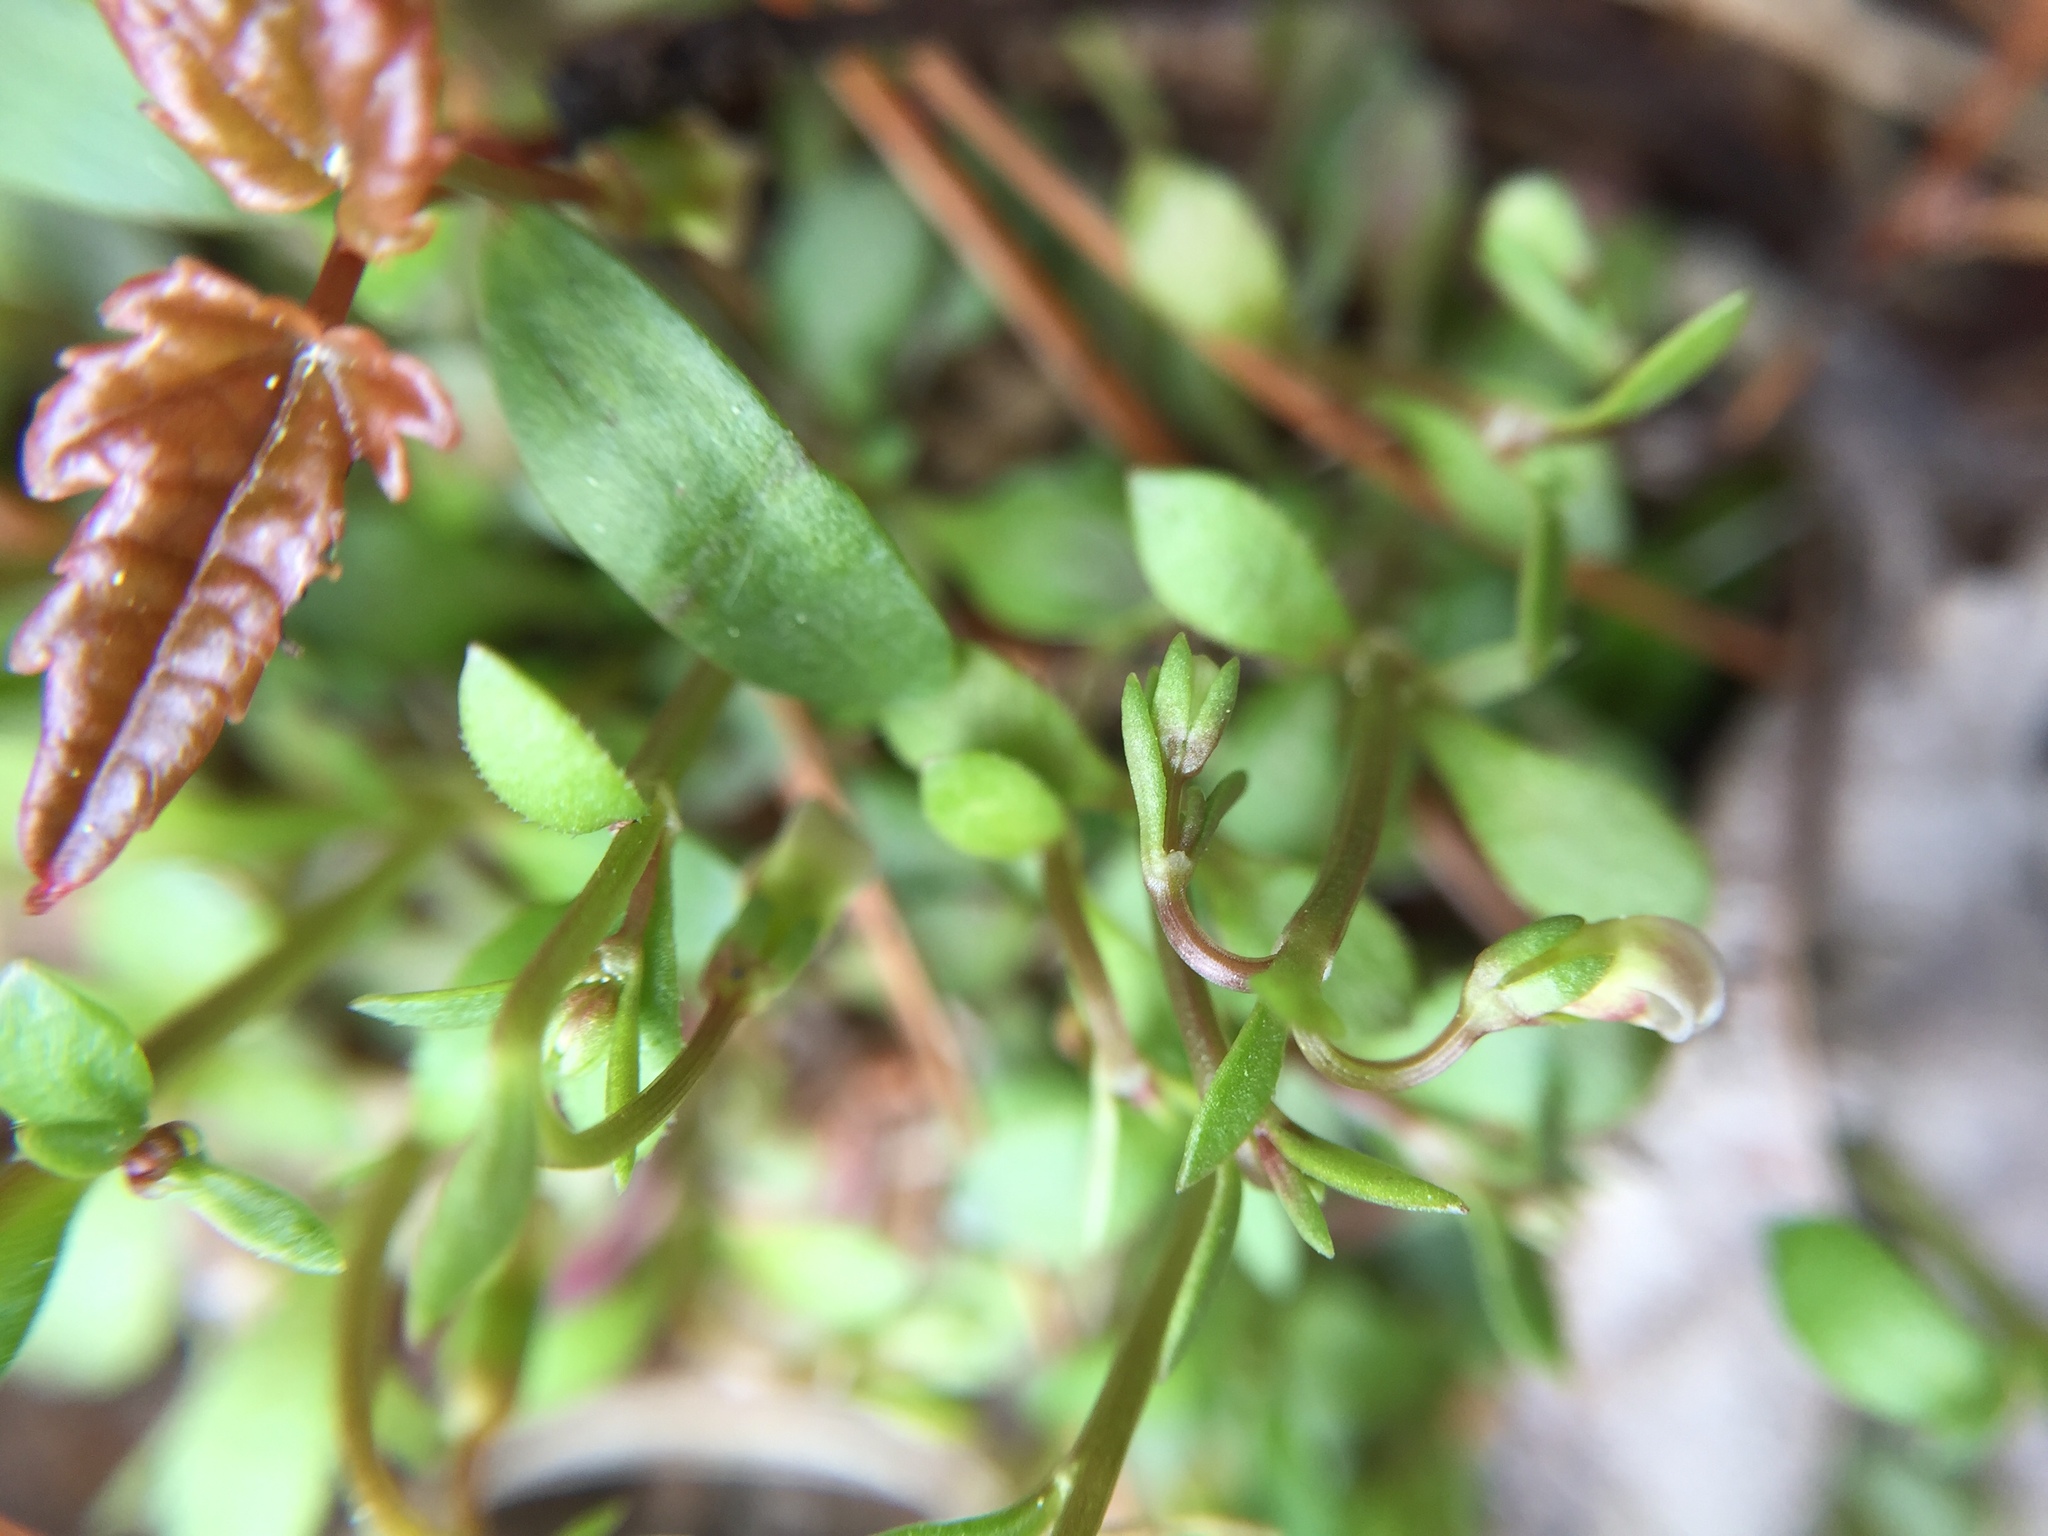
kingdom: Plantae
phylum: Tracheophyta
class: Magnoliopsida
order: Gentianales
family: Rubiaceae
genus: Houstonia
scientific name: Houstonia caerulea
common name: Bluets
